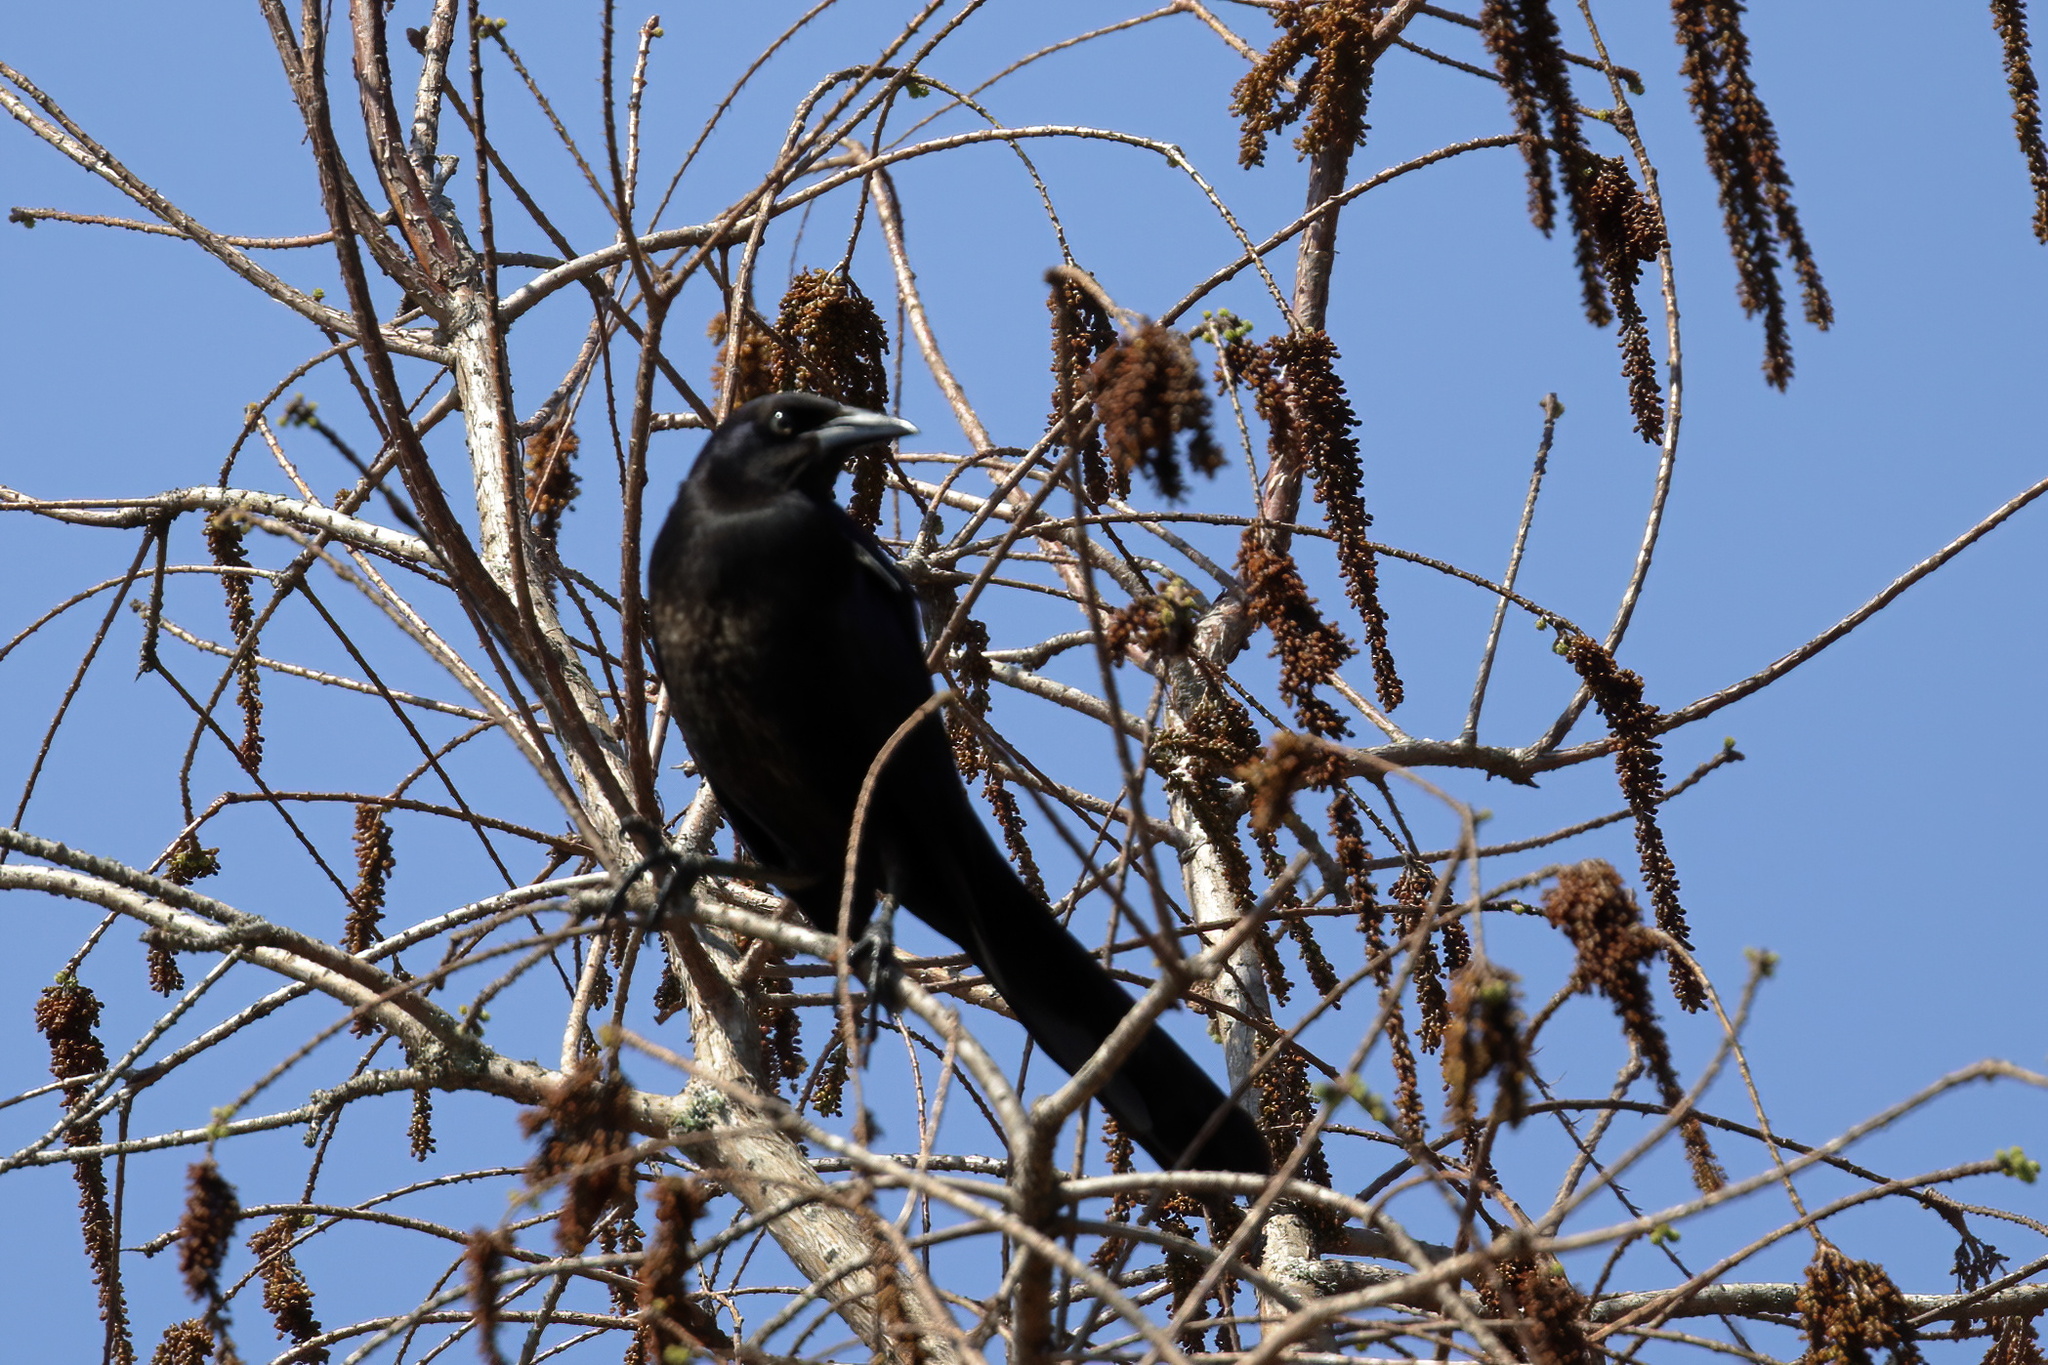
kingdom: Animalia
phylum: Chordata
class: Aves
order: Passeriformes
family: Icteridae
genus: Quiscalus
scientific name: Quiscalus major
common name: Boat-tailed grackle
